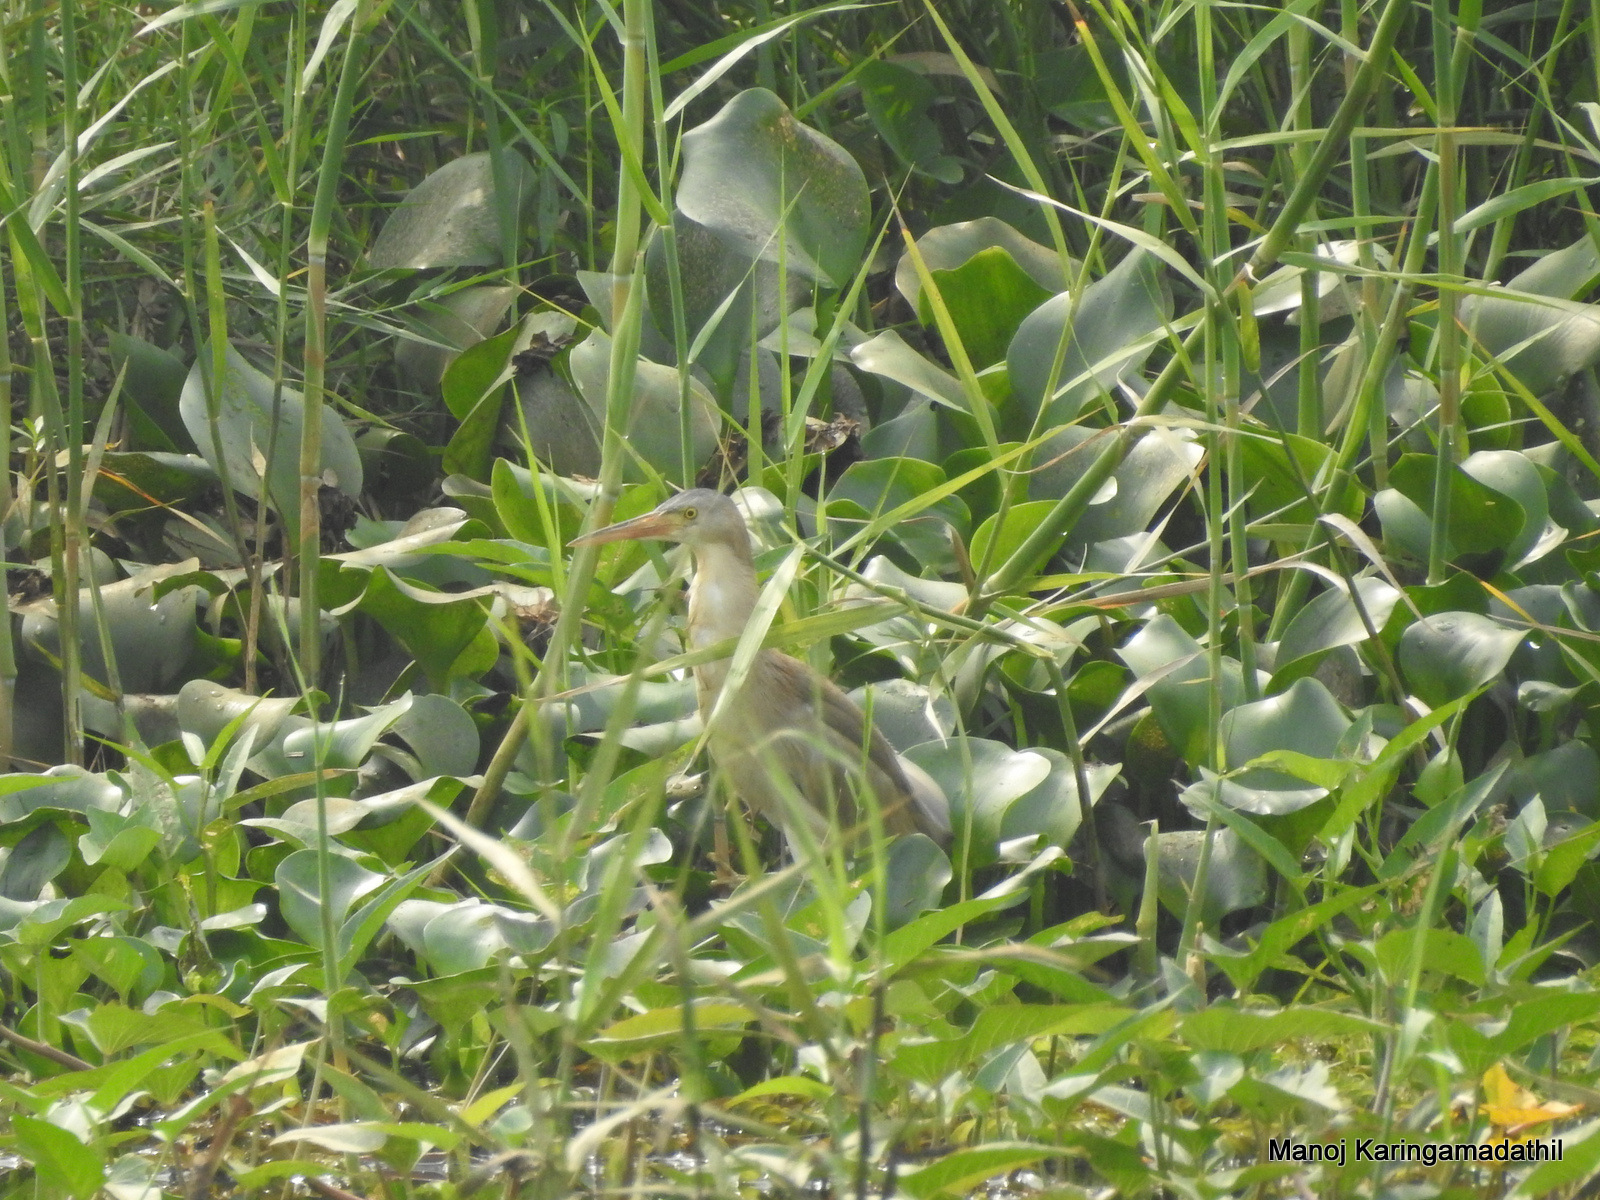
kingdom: Animalia
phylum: Chordata
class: Aves
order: Pelecaniformes
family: Ardeidae
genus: Ixobrychus
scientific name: Ixobrychus sinensis
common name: Yellow bittern
